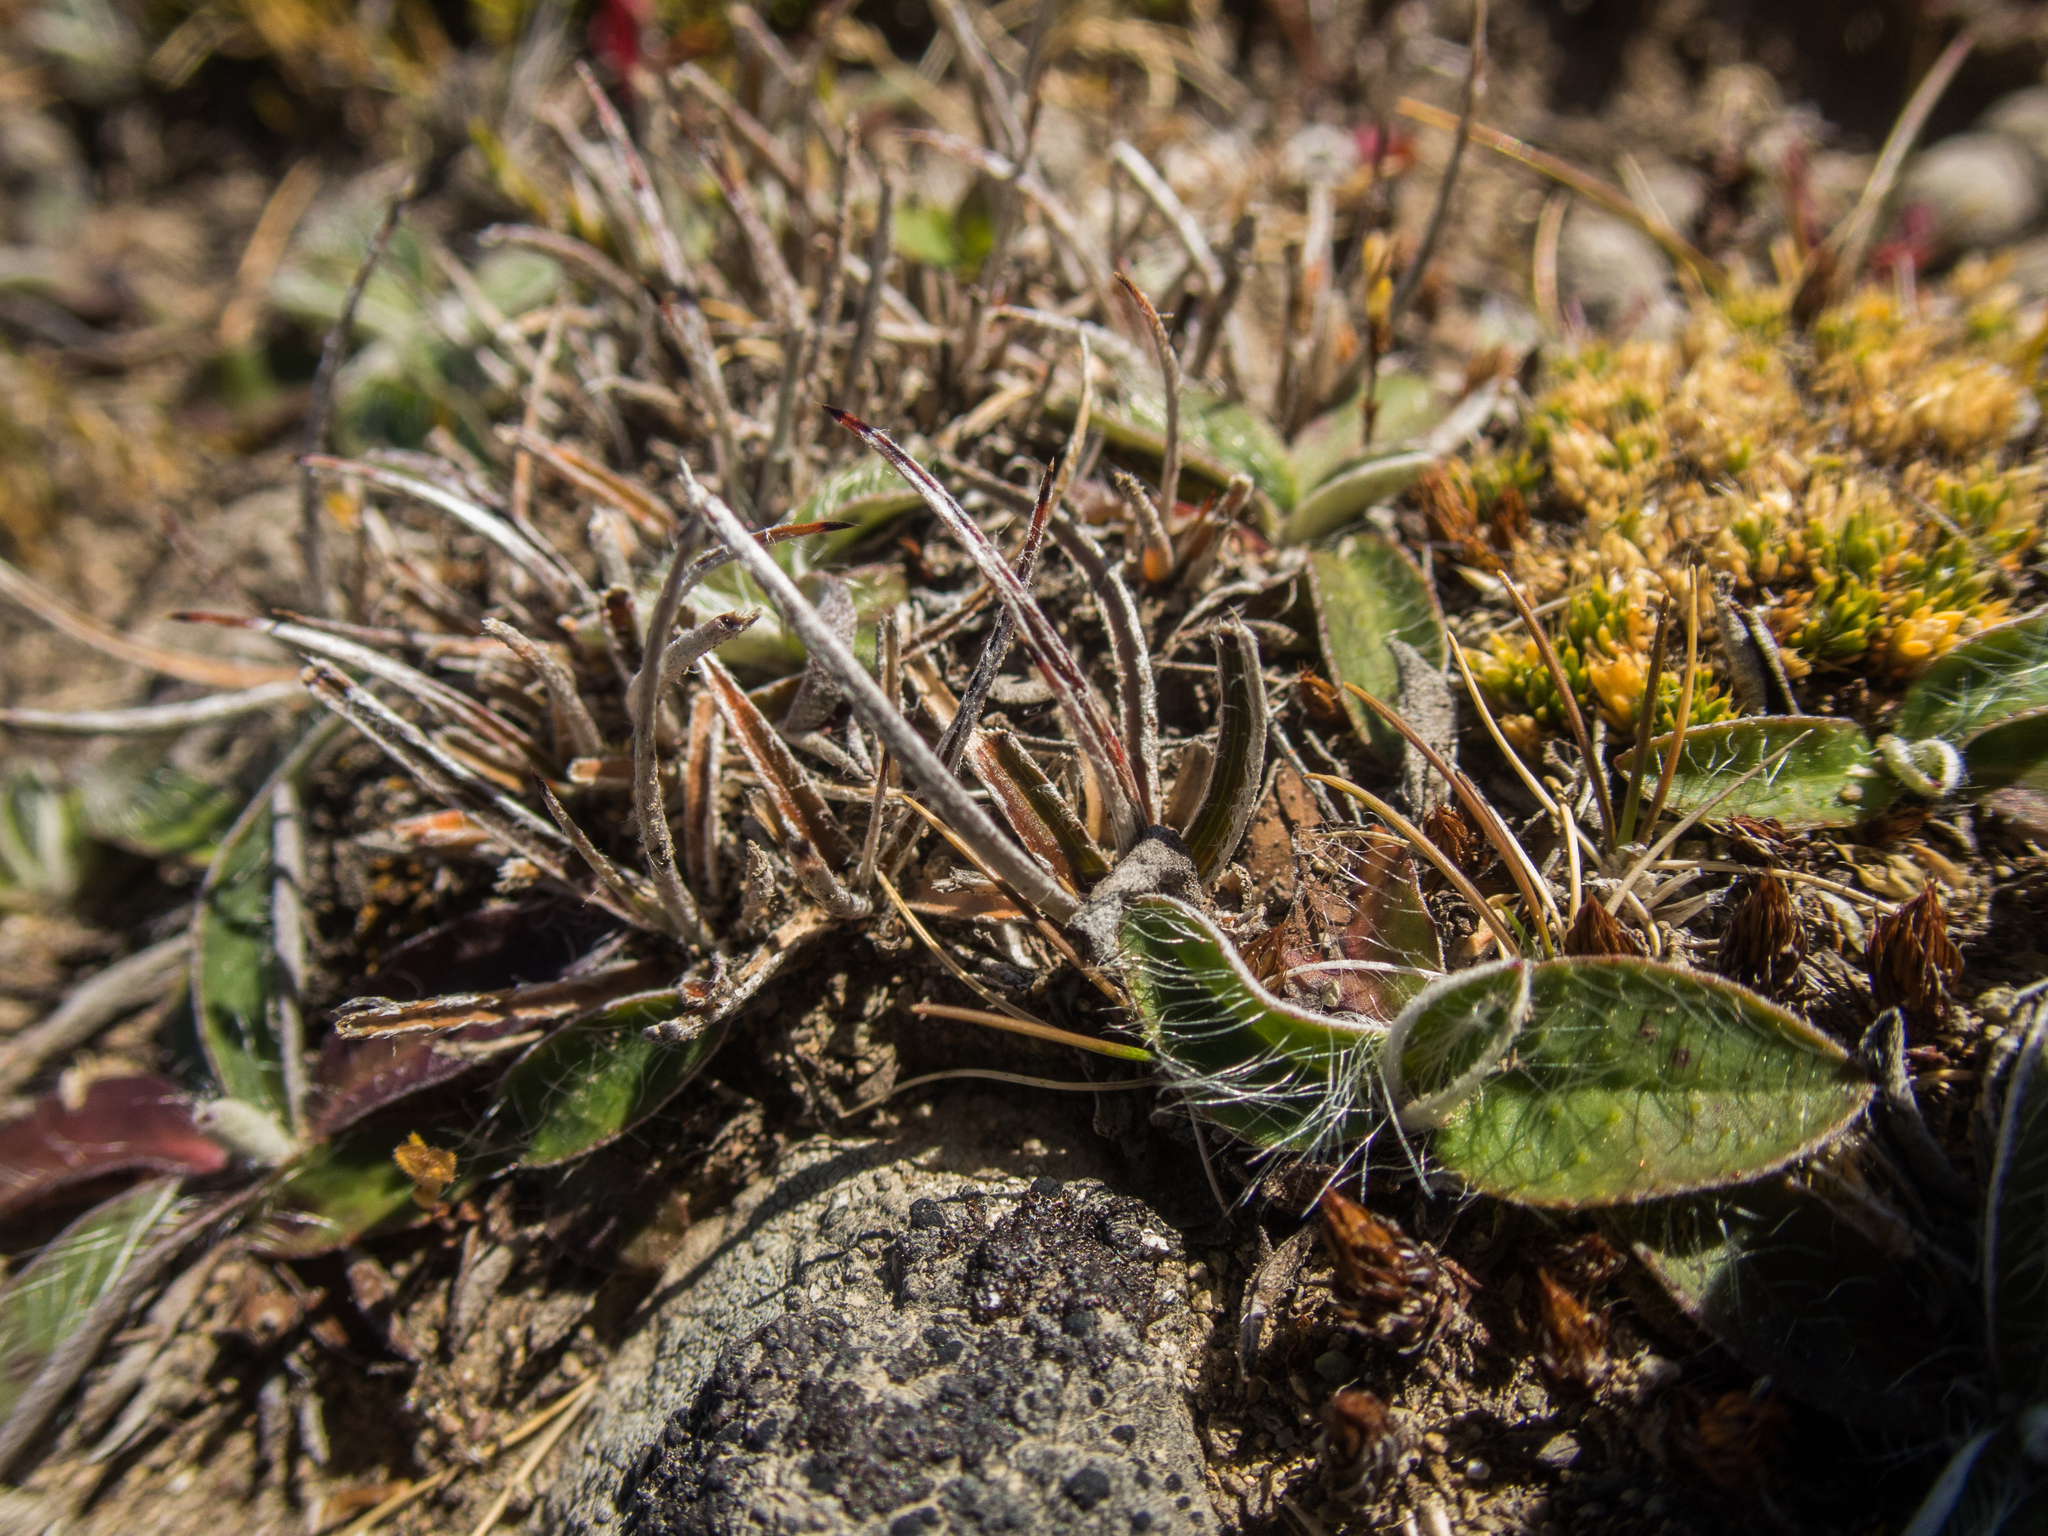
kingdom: Plantae
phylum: Tracheophyta
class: Liliopsida
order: Poales
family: Juncaceae
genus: Luzula
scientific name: Luzula ulophylla
